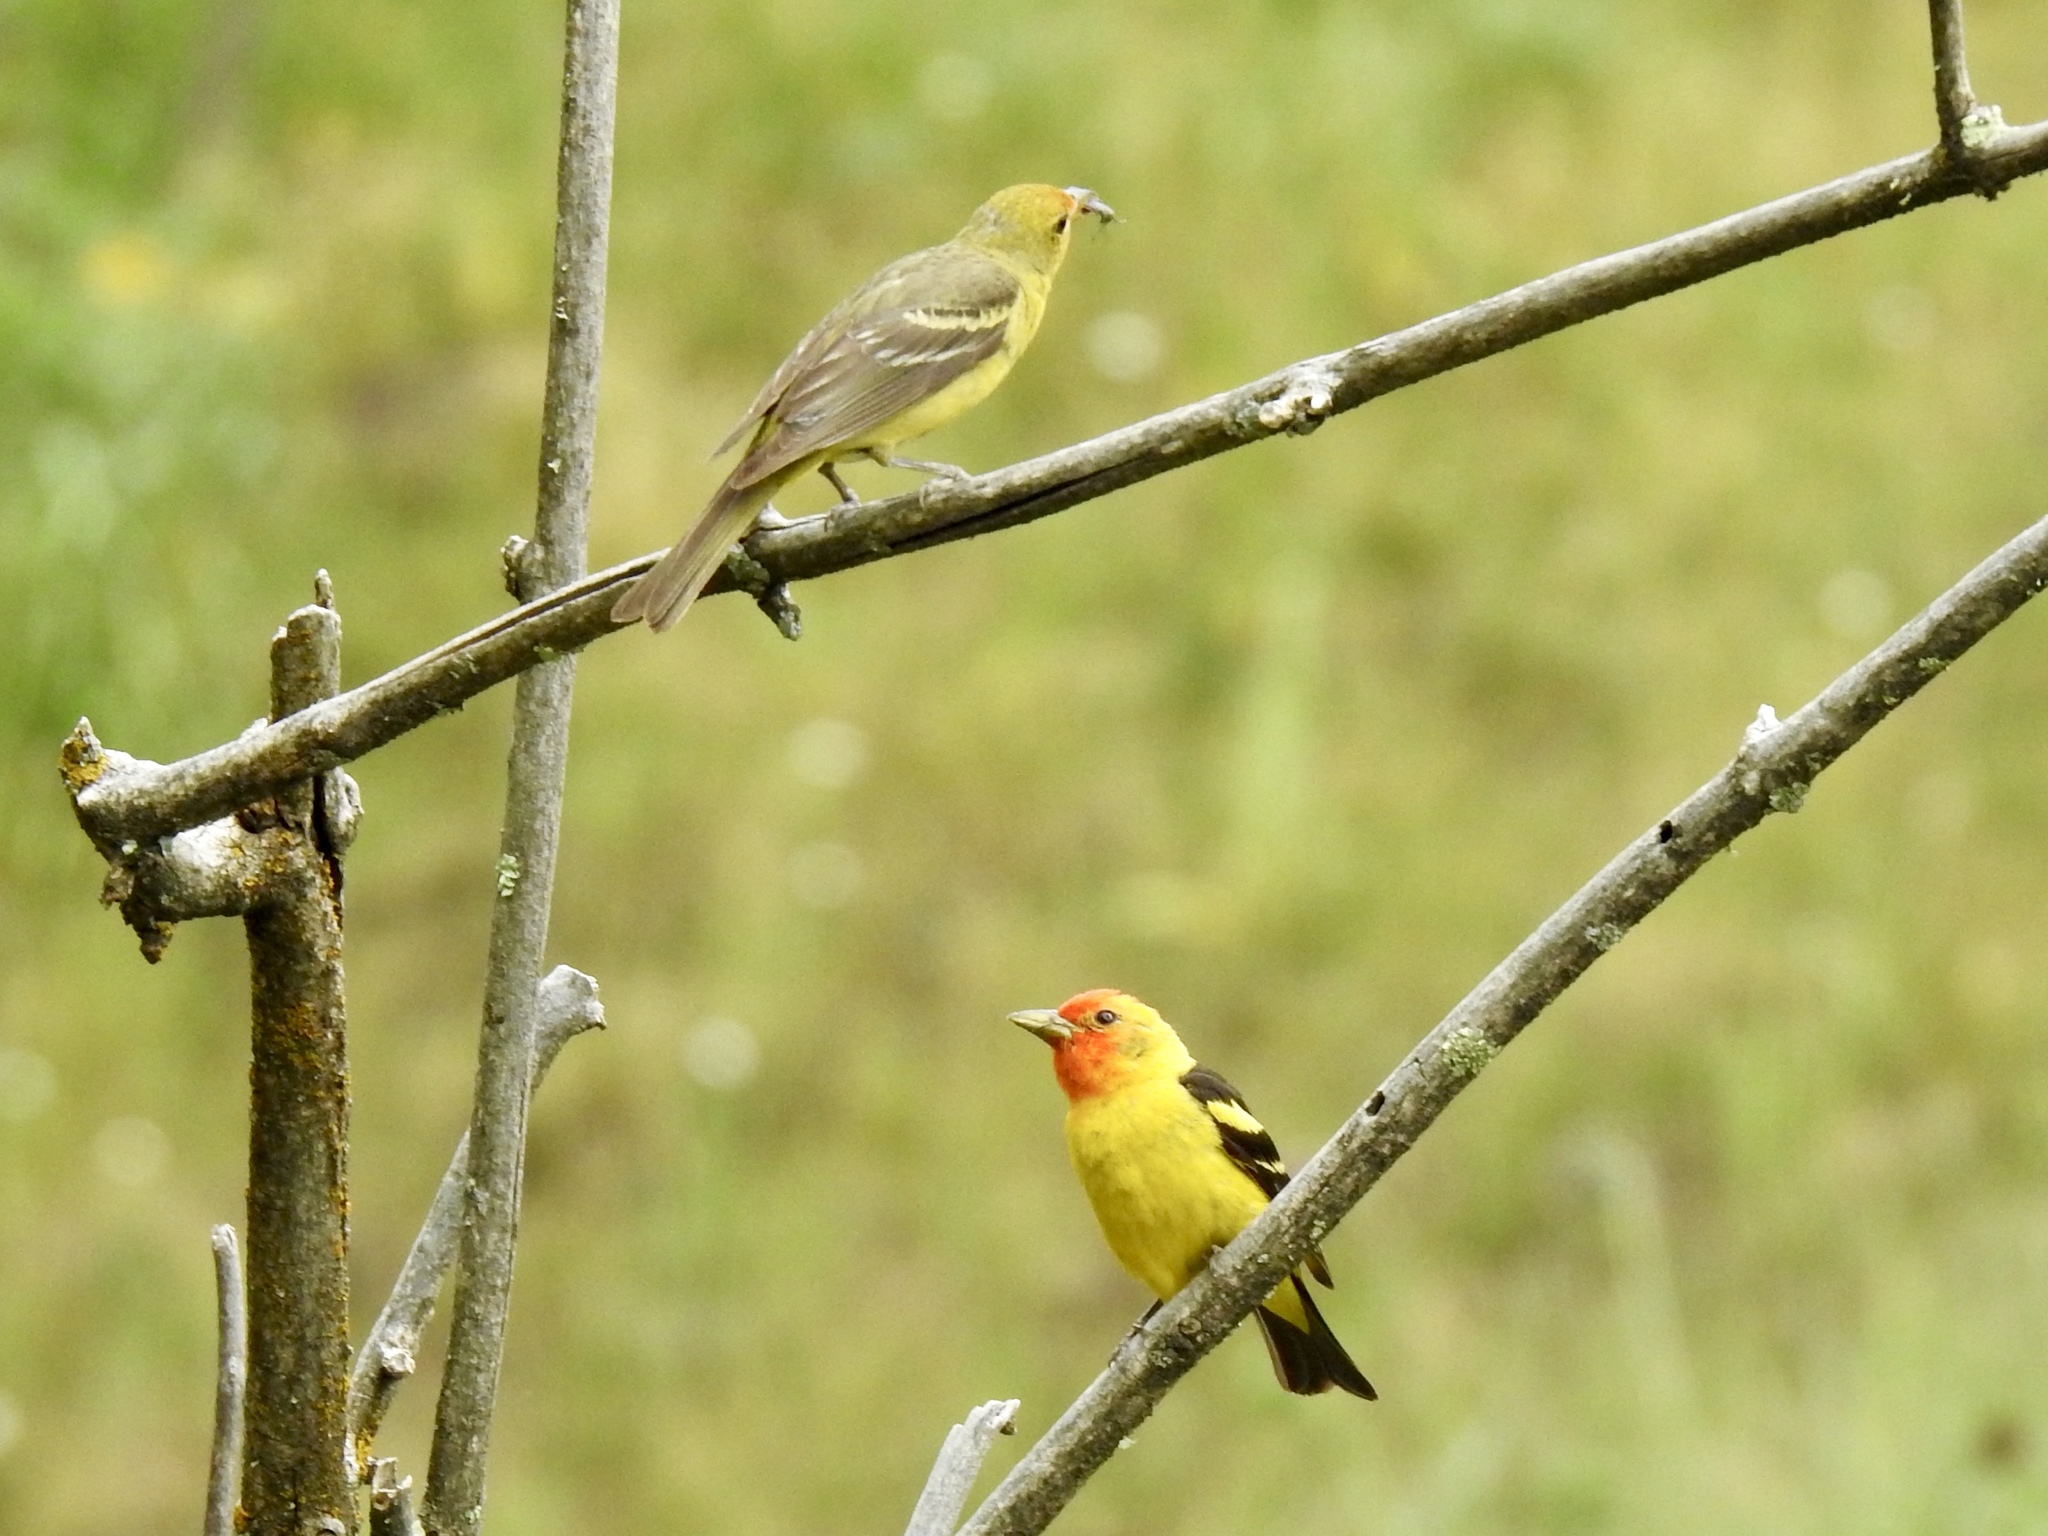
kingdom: Animalia
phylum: Chordata
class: Aves
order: Passeriformes
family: Cardinalidae
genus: Piranga
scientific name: Piranga ludoviciana
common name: Western tanager
